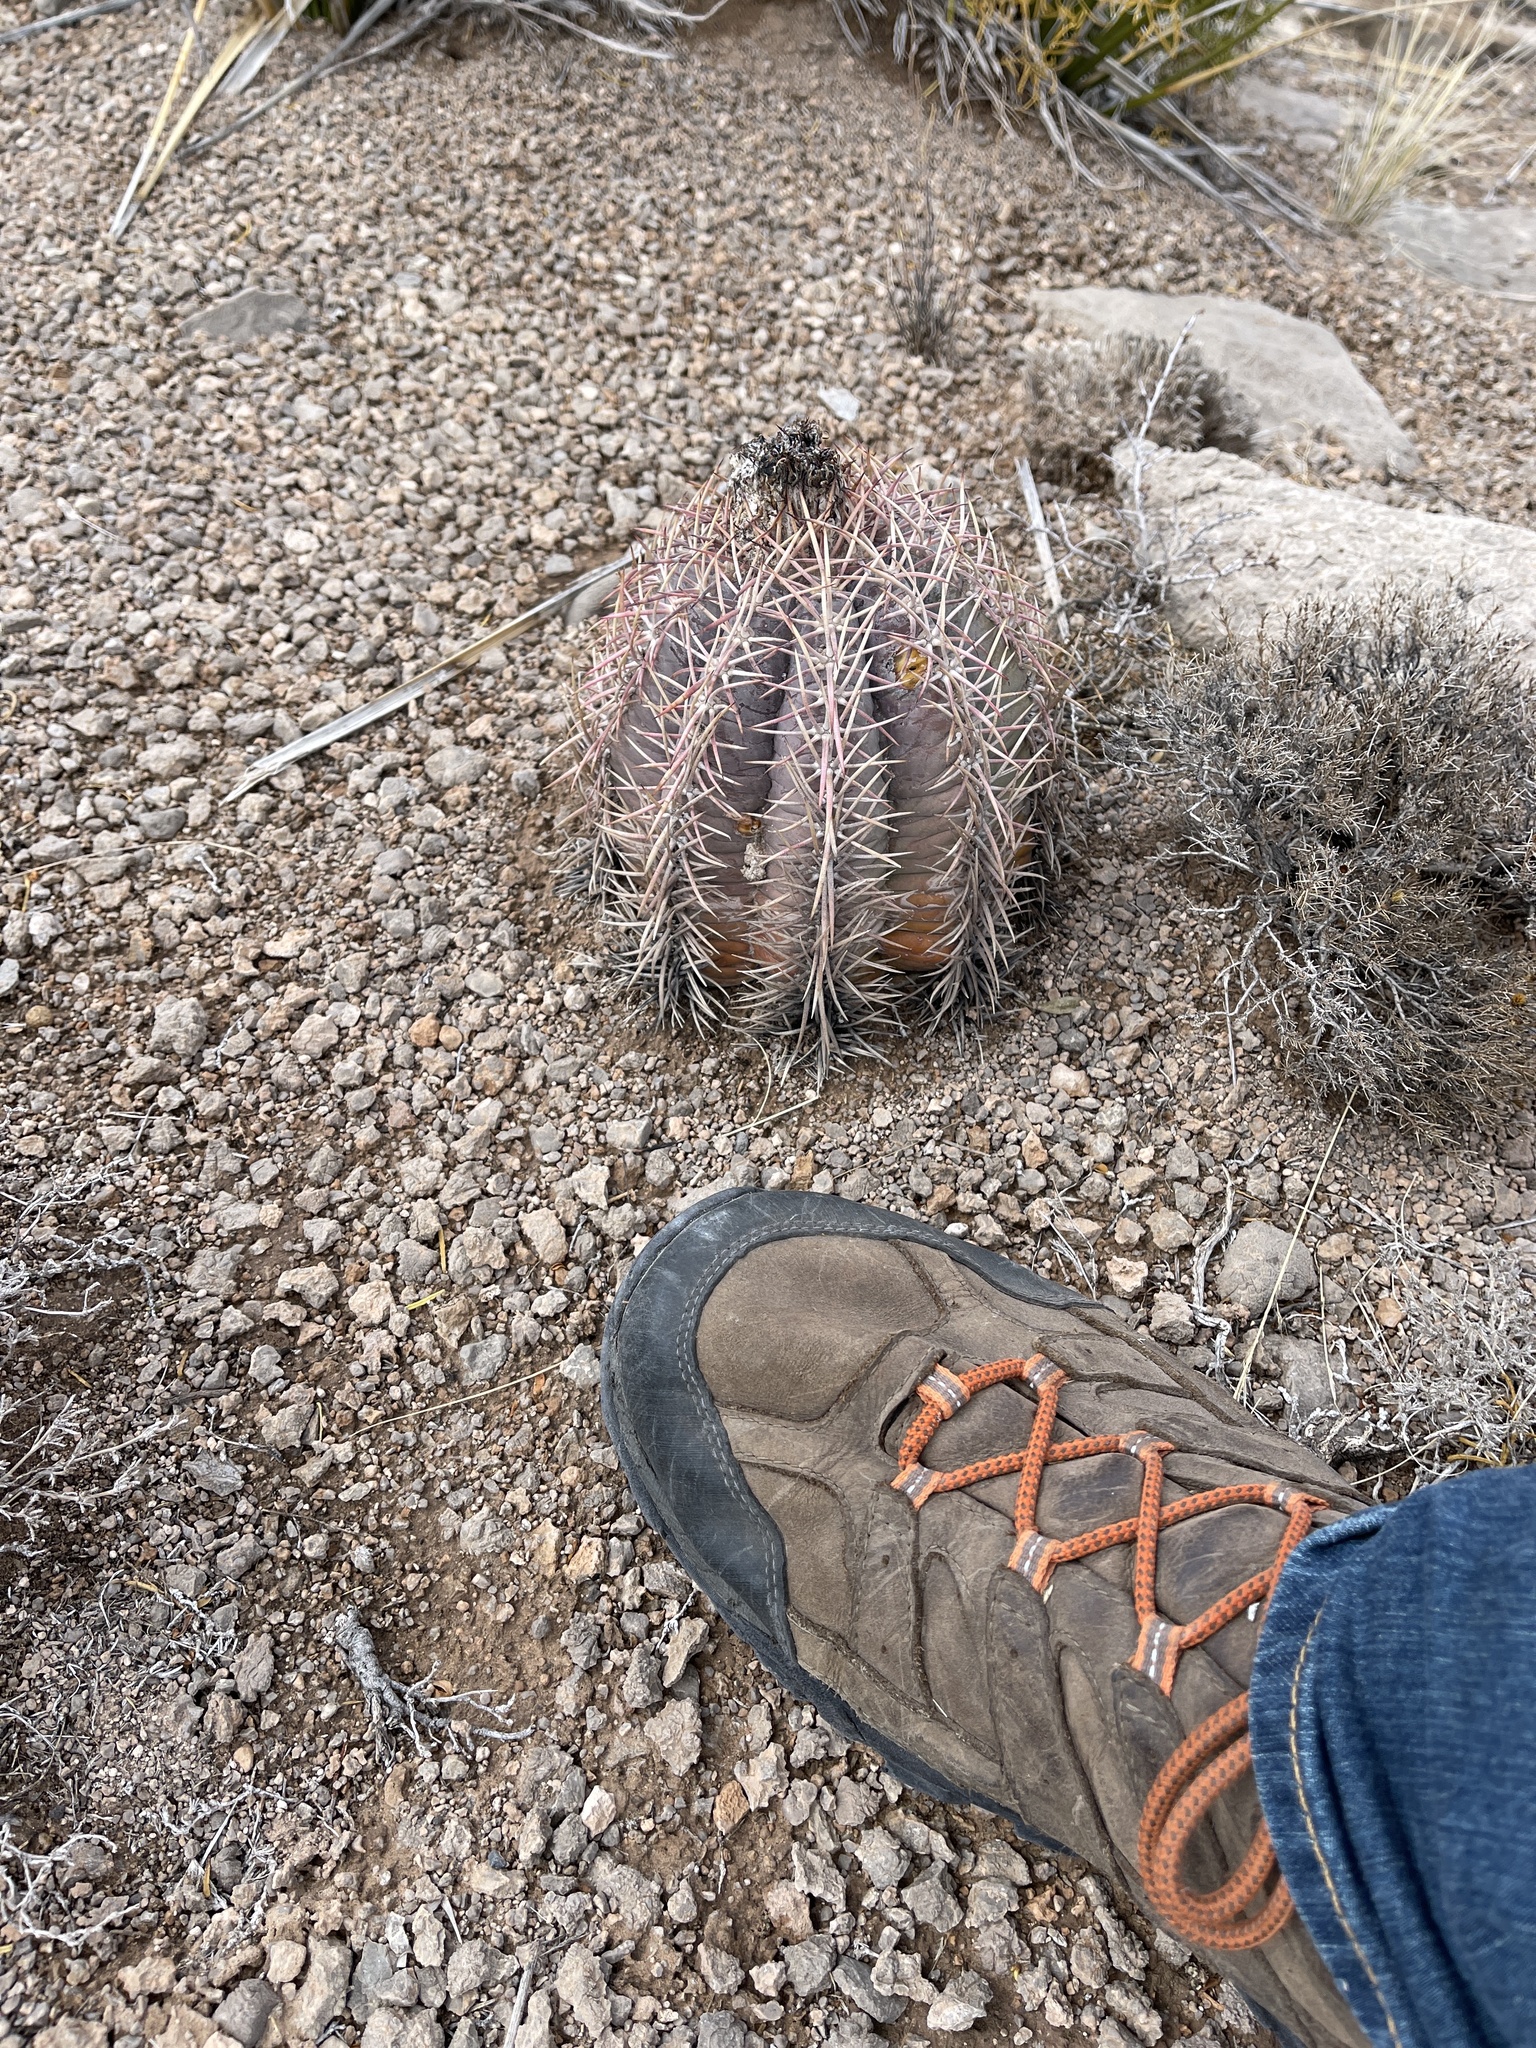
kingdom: Plantae
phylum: Tracheophyta
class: Magnoliopsida
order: Caryophyllales
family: Cactaceae
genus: Echinocactus
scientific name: Echinocactus horizonthalonius
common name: Devilshead
